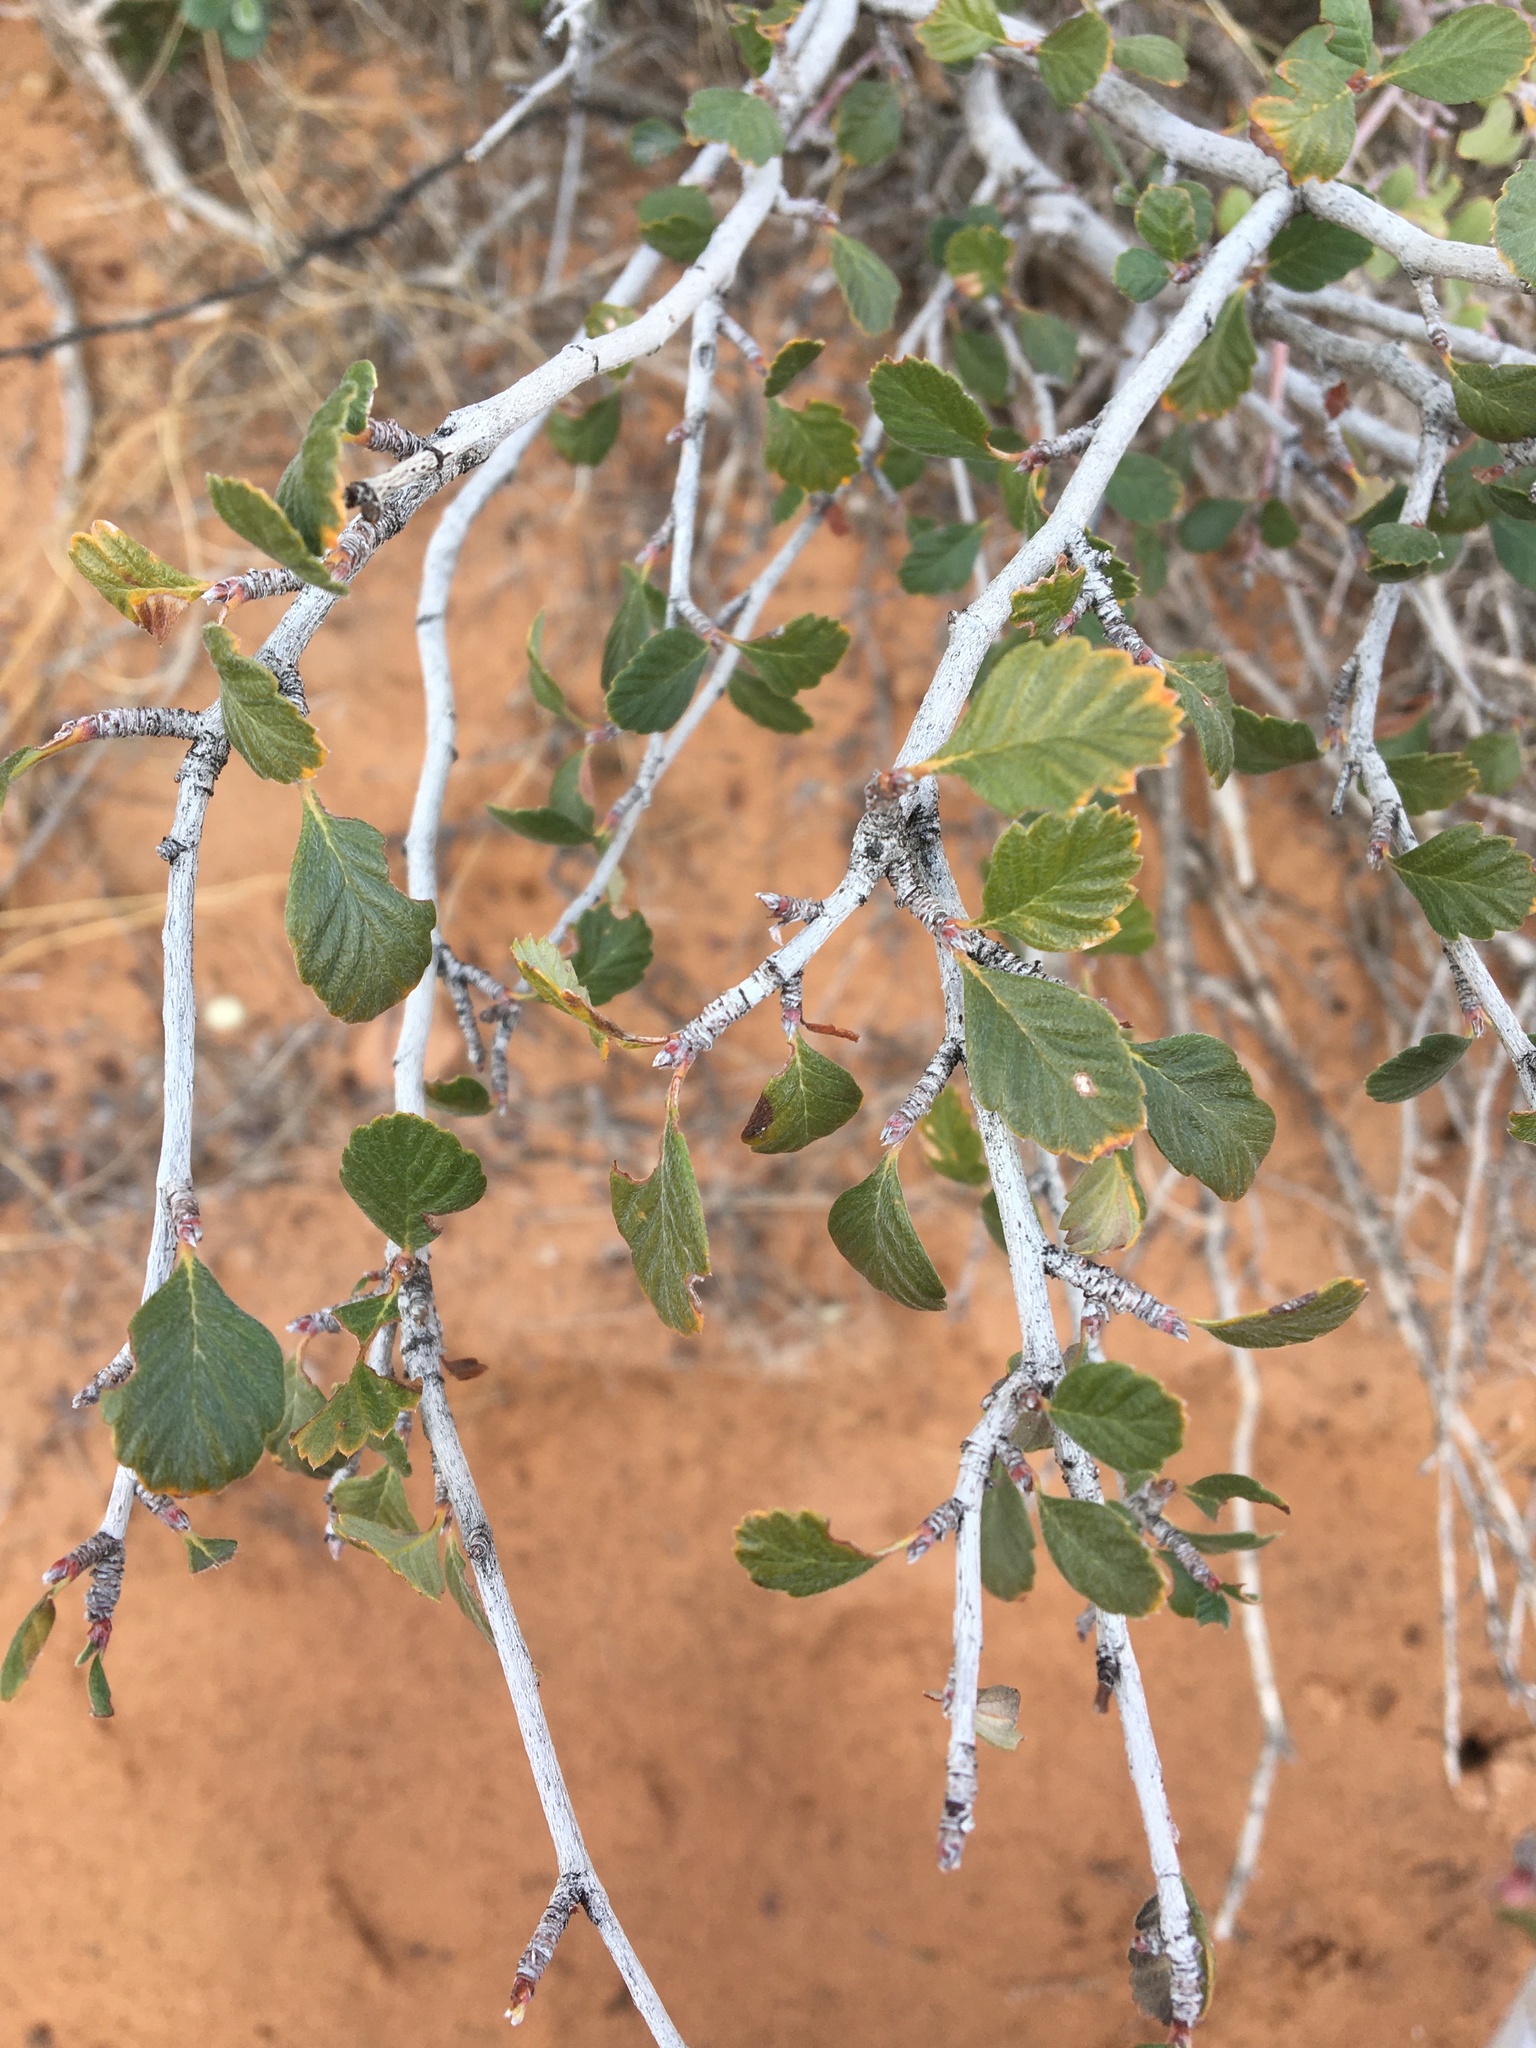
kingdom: Plantae
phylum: Tracheophyta
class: Magnoliopsida
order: Rosales
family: Rosaceae
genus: Cercocarpus
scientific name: Cercocarpus montanus
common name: Alder-leaf cercocarpus
